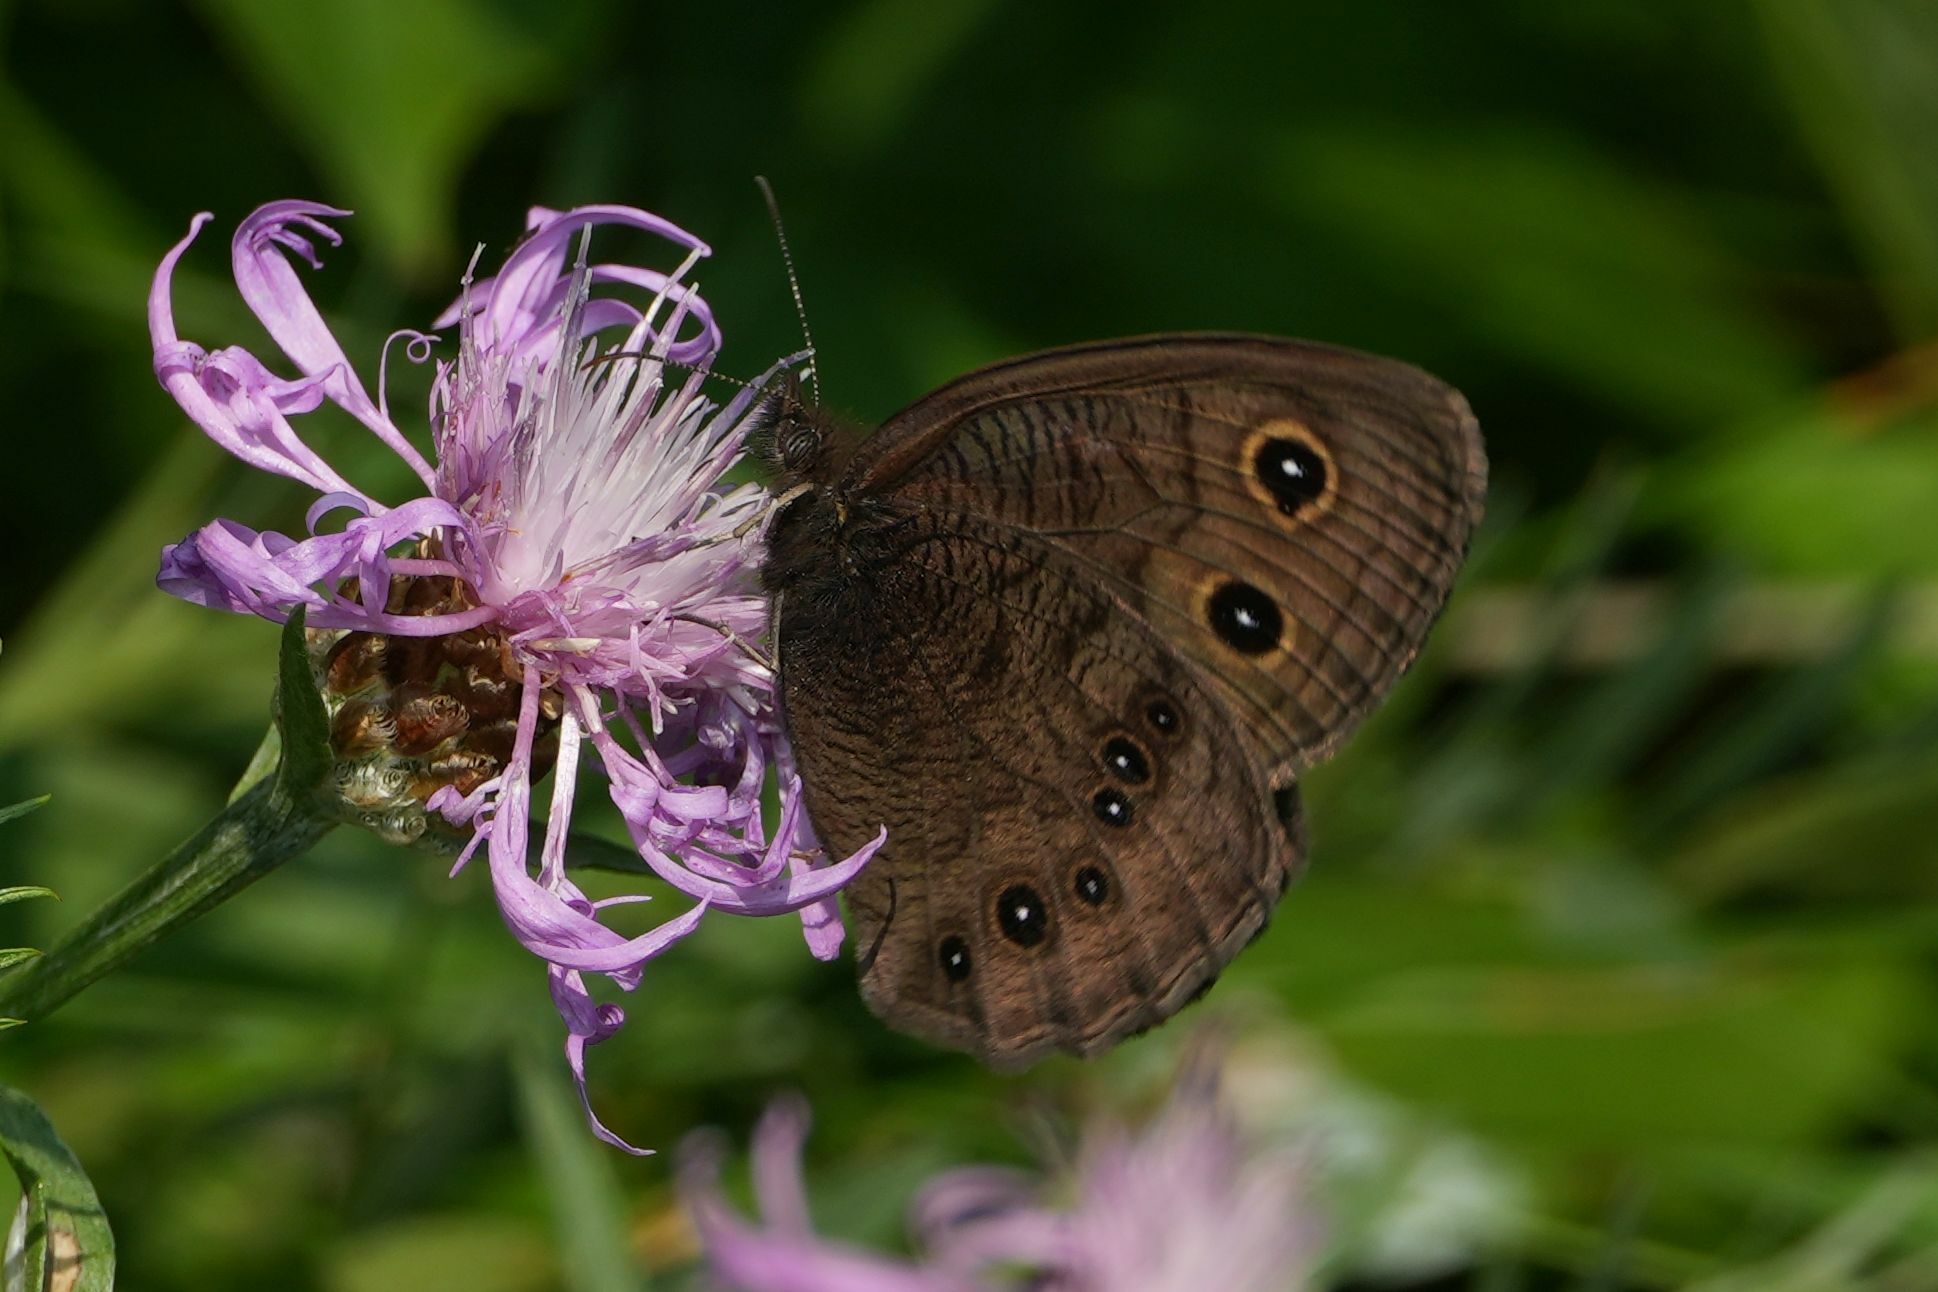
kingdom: Animalia
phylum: Arthropoda
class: Insecta
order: Lepidoptera
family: Nymphalidae
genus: Cercyonis
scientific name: Cercyonis pegala
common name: Common wood-nymph
